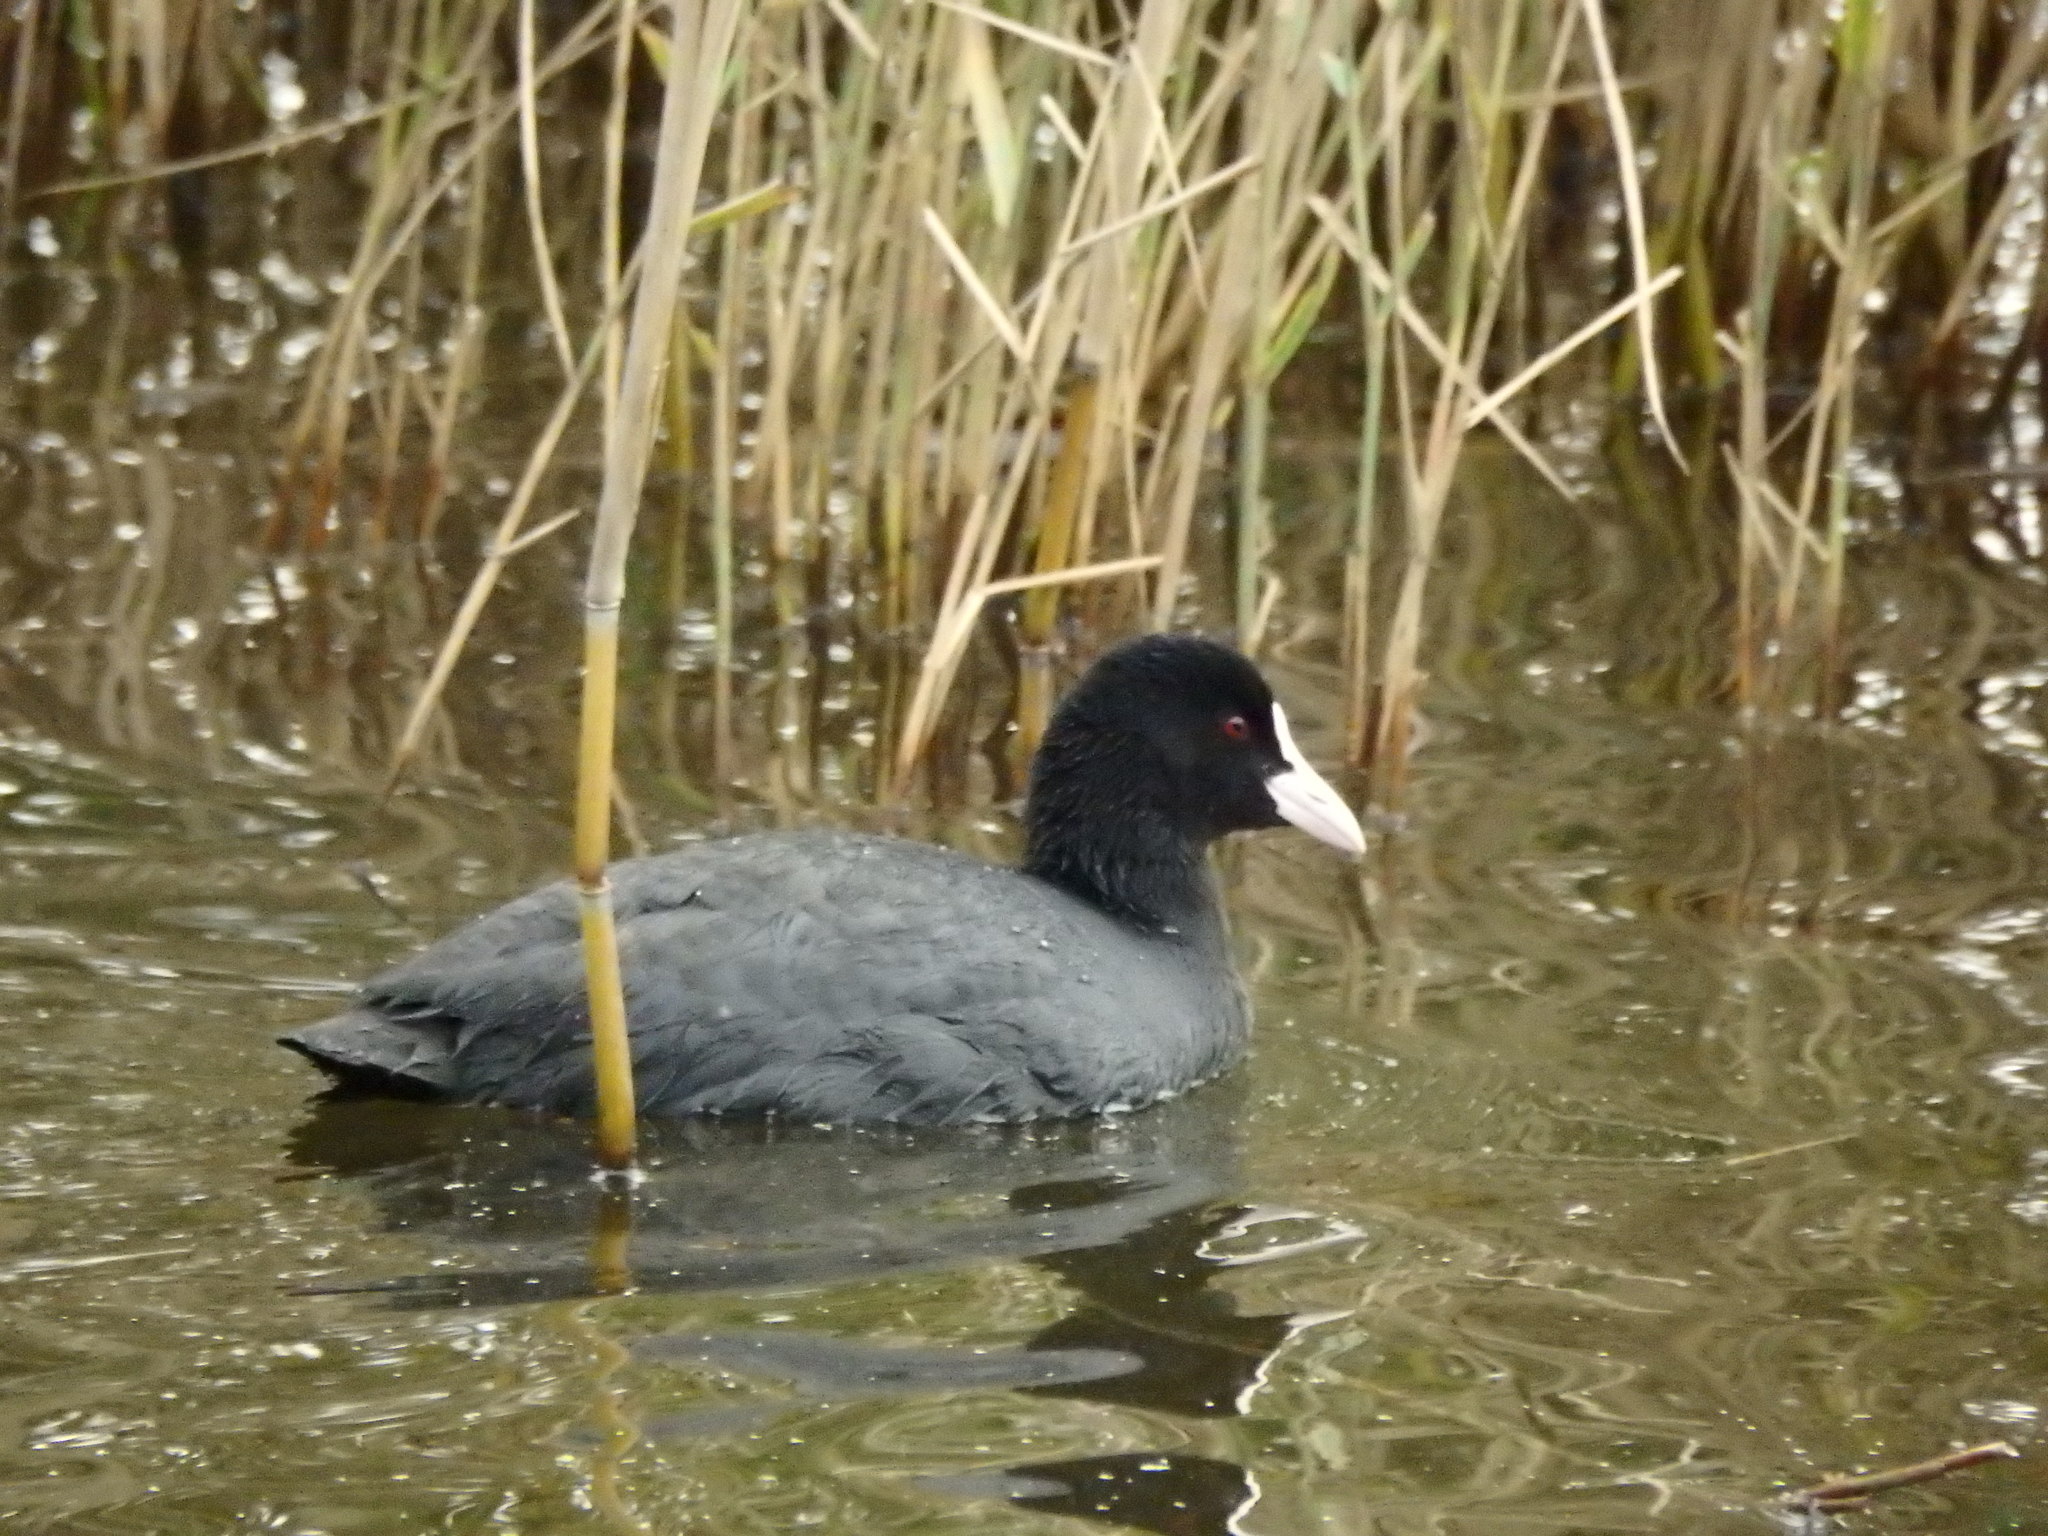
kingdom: Animalia
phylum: Chordata
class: Aves
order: Gruiformes
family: Rallidae
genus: Fulica
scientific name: Fulica atra
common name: Eurasian coot
